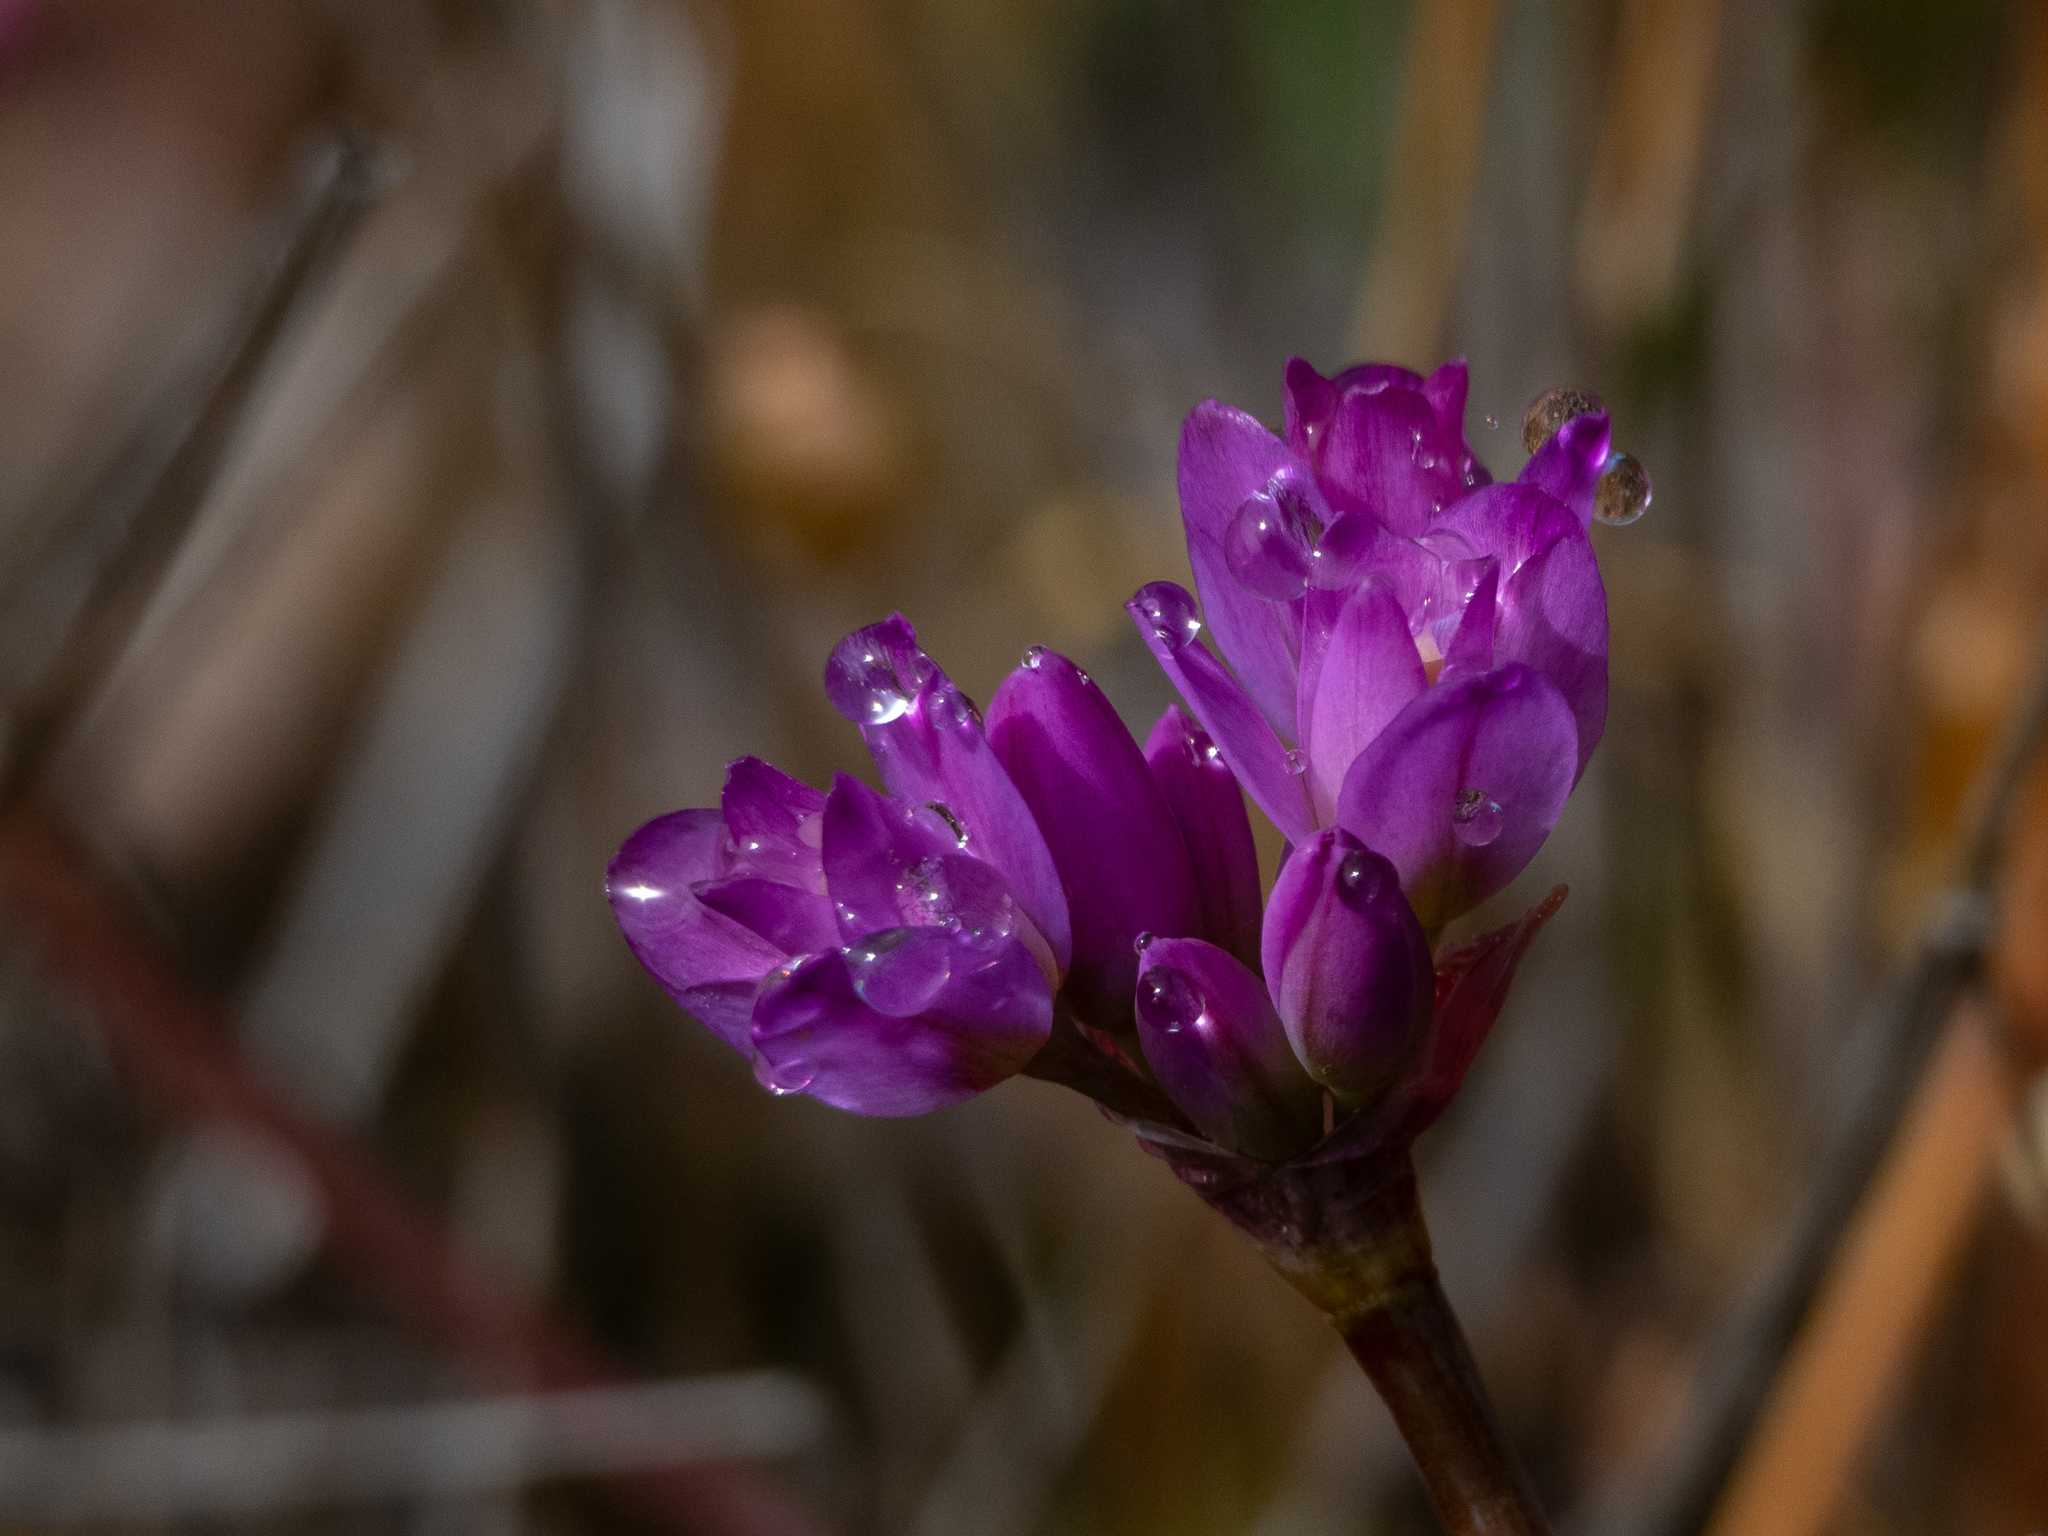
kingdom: Plantae
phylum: Tracheophyta
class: Liliopsida
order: Asparagales
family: Amaryllidaceae
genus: Allium
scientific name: Allium dichlamydeum
